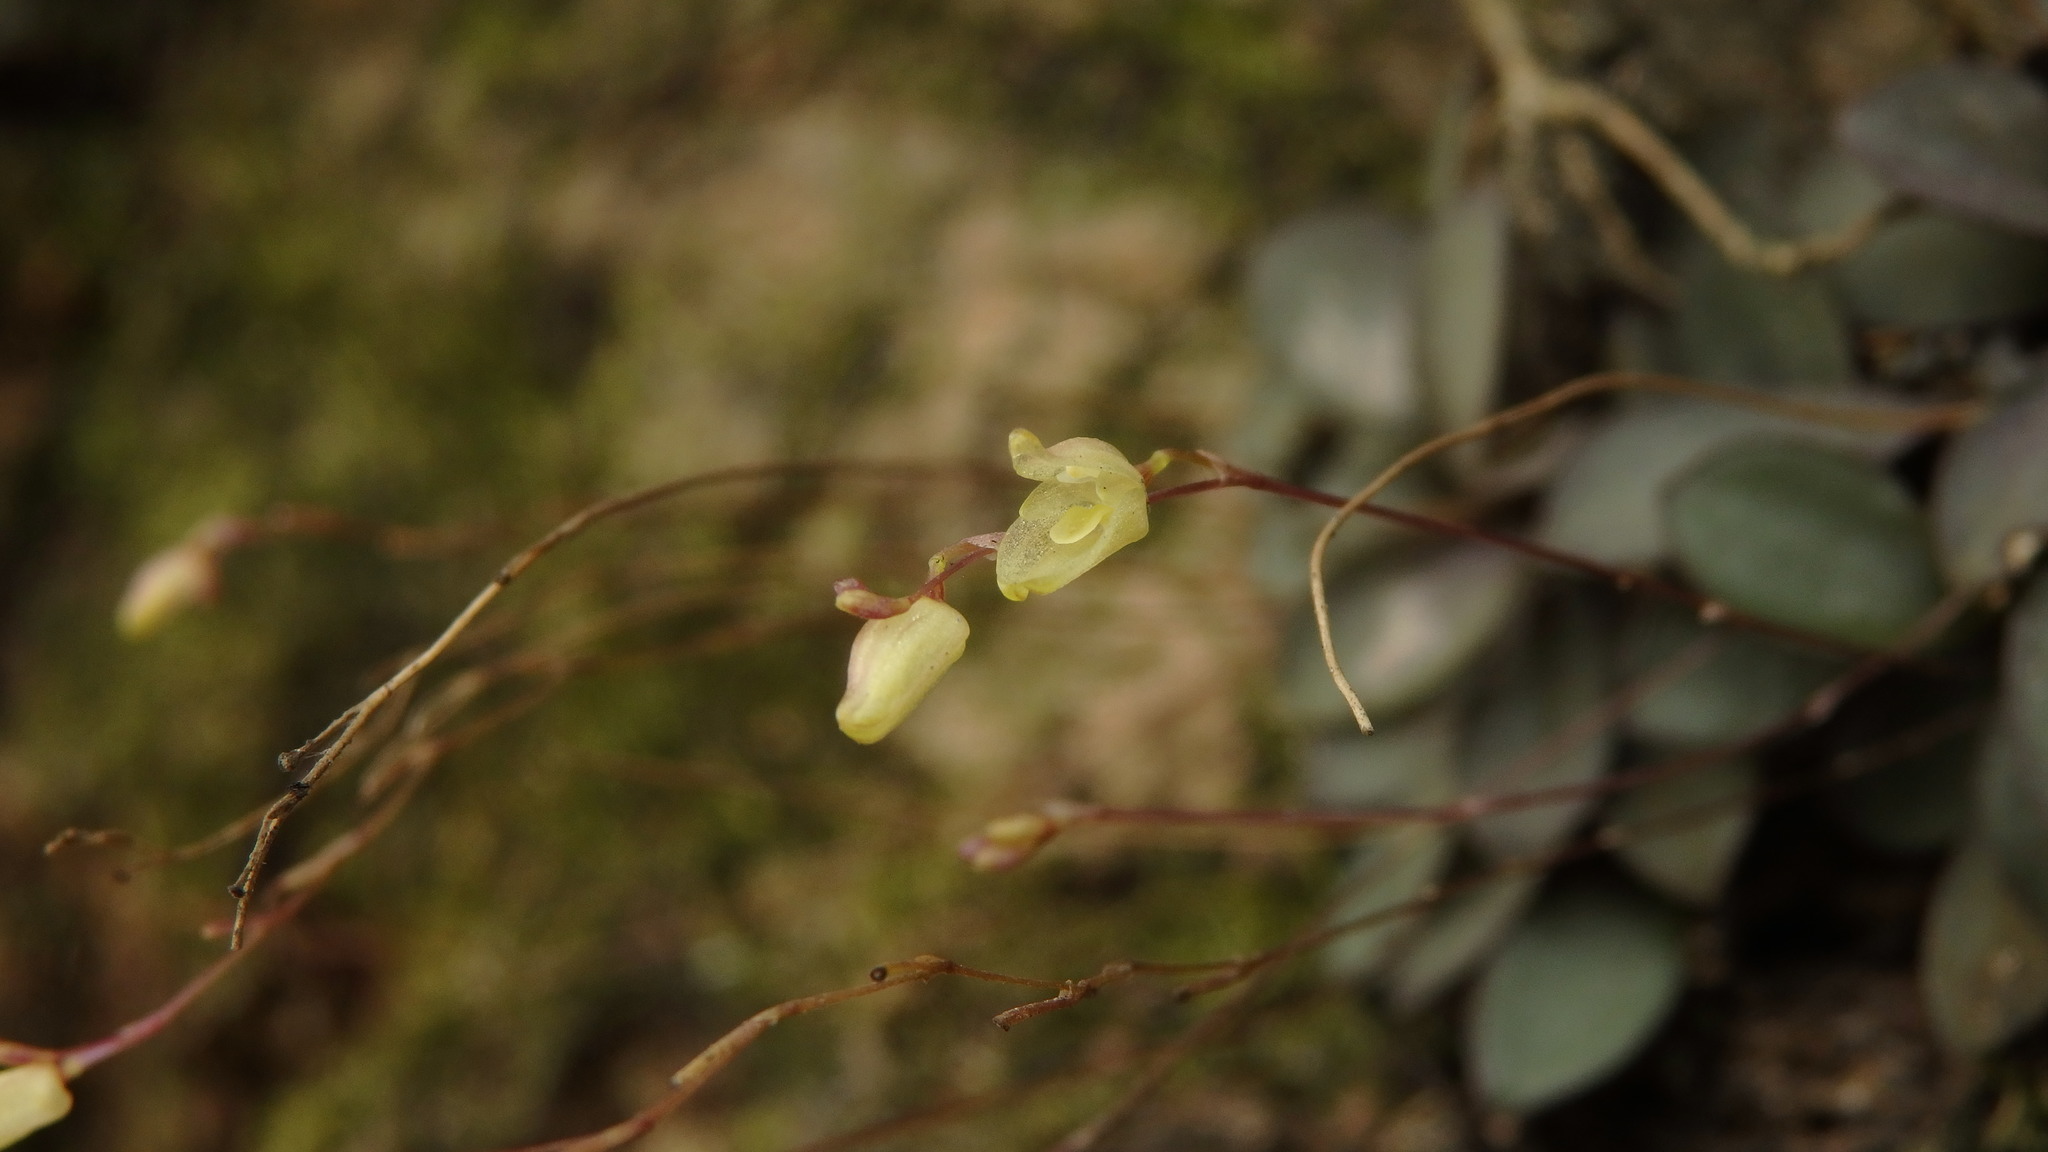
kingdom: Plantae
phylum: Tracheophyta
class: Liliopsida
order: Asparagales
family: Orchidaceae
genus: Specklinia
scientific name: Specklinia digitale
